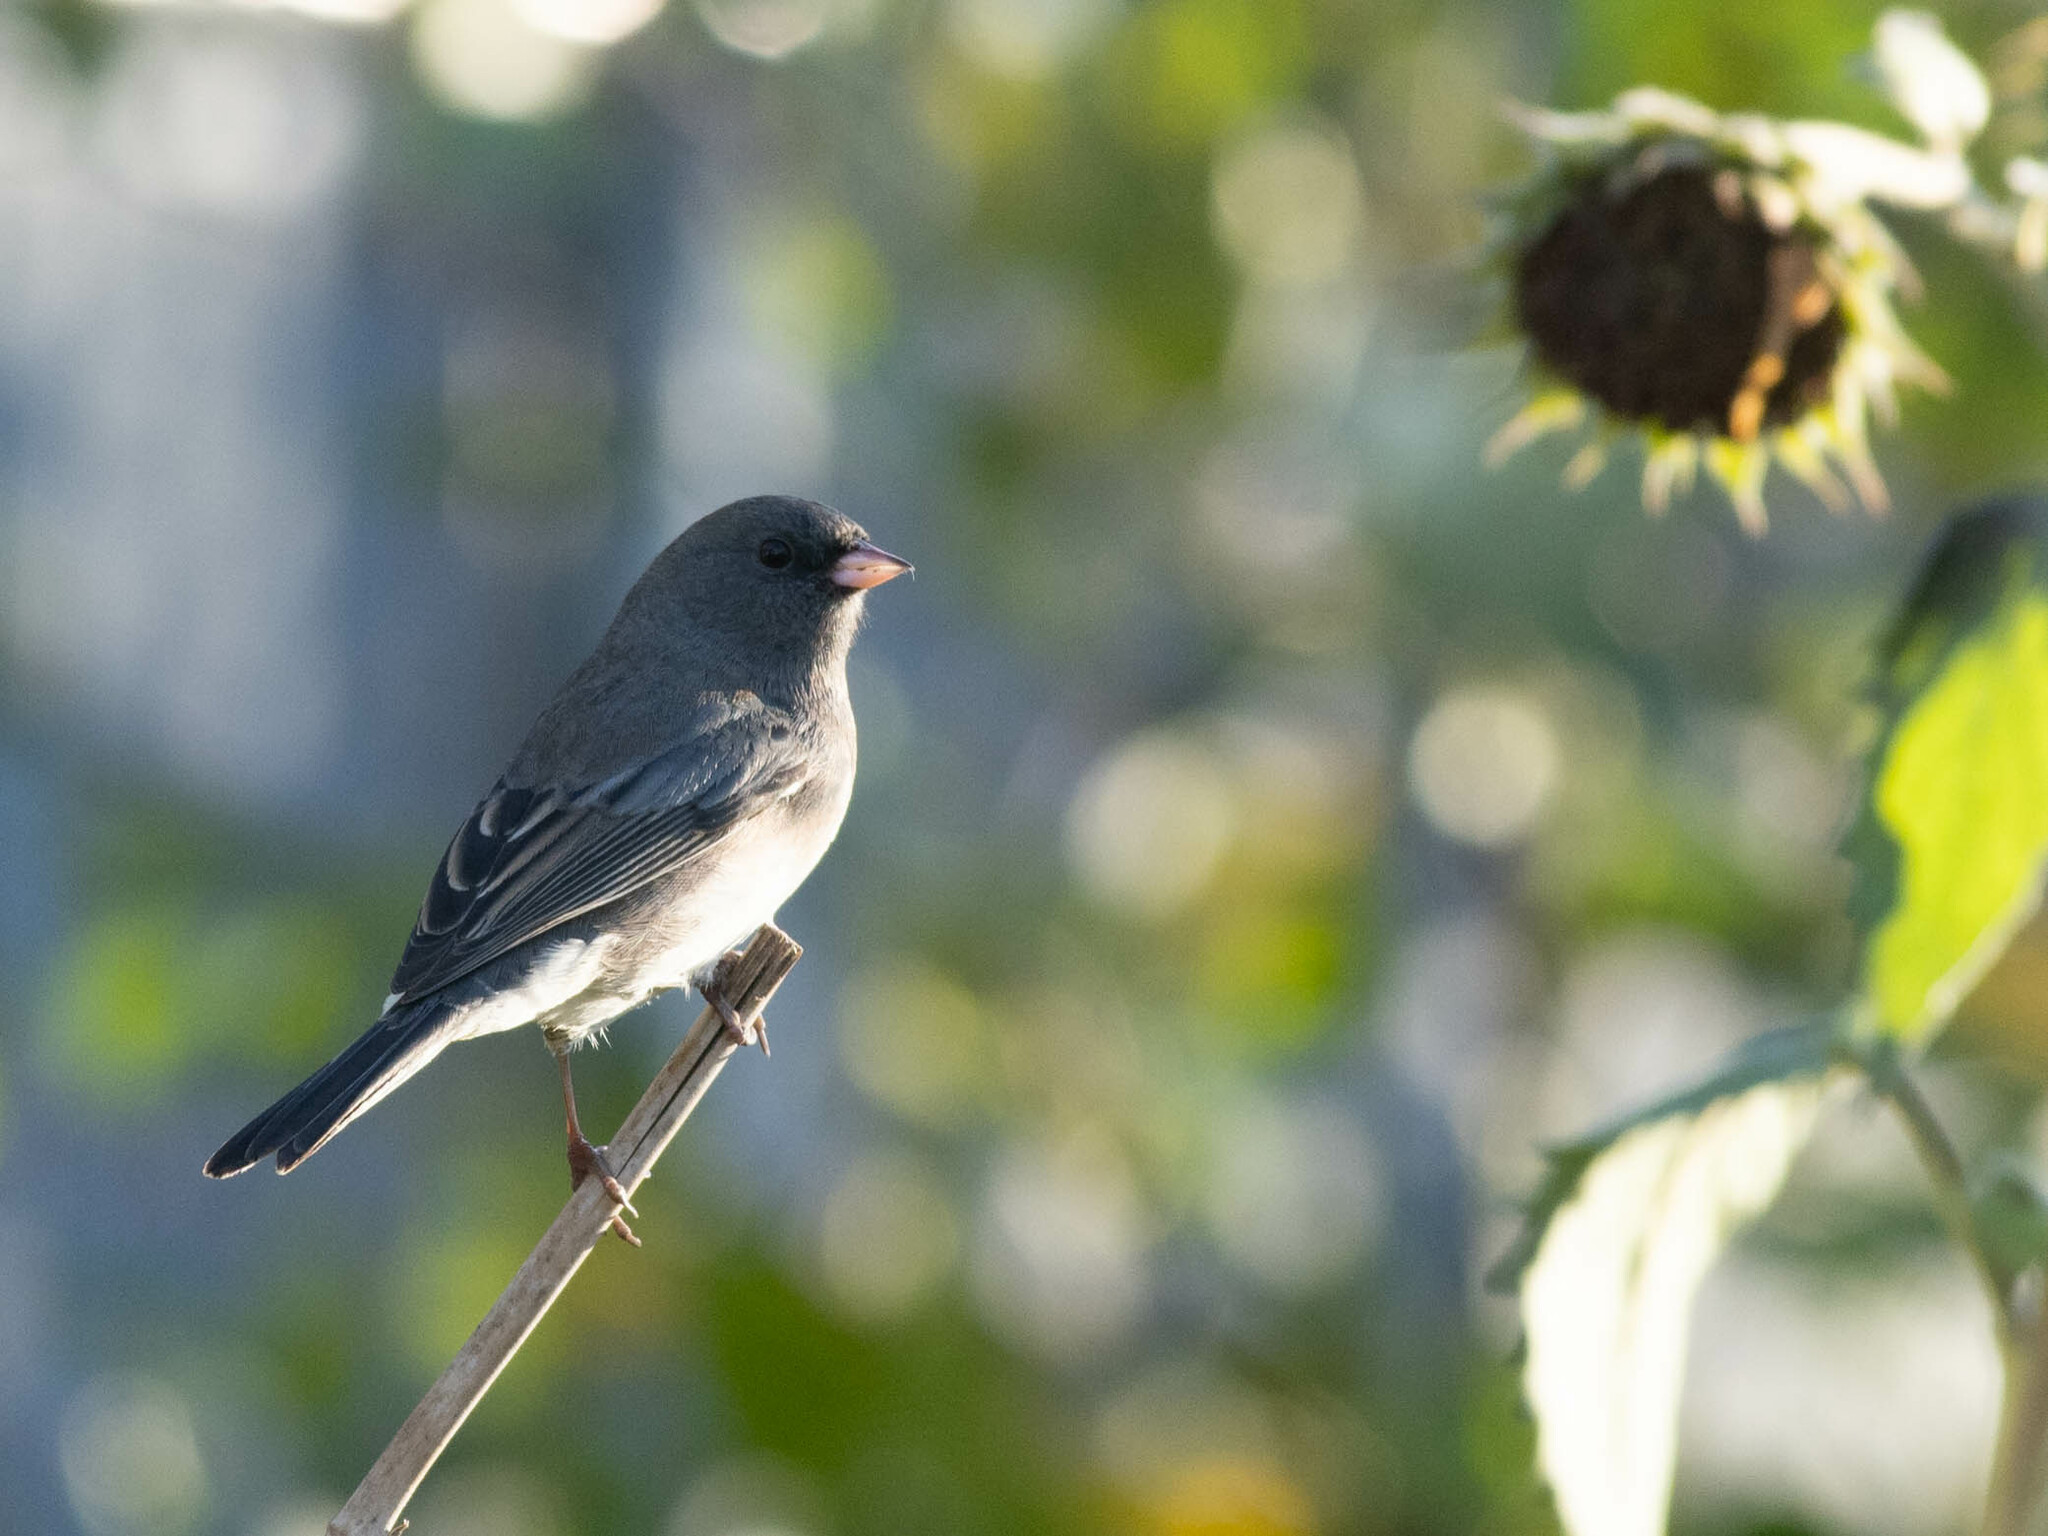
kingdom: Animalia
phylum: Chordata
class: Aves
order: Passeriformes
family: Passerellidae
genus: Junco
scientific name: Junco hyemalis
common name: Dark-eyed junco
